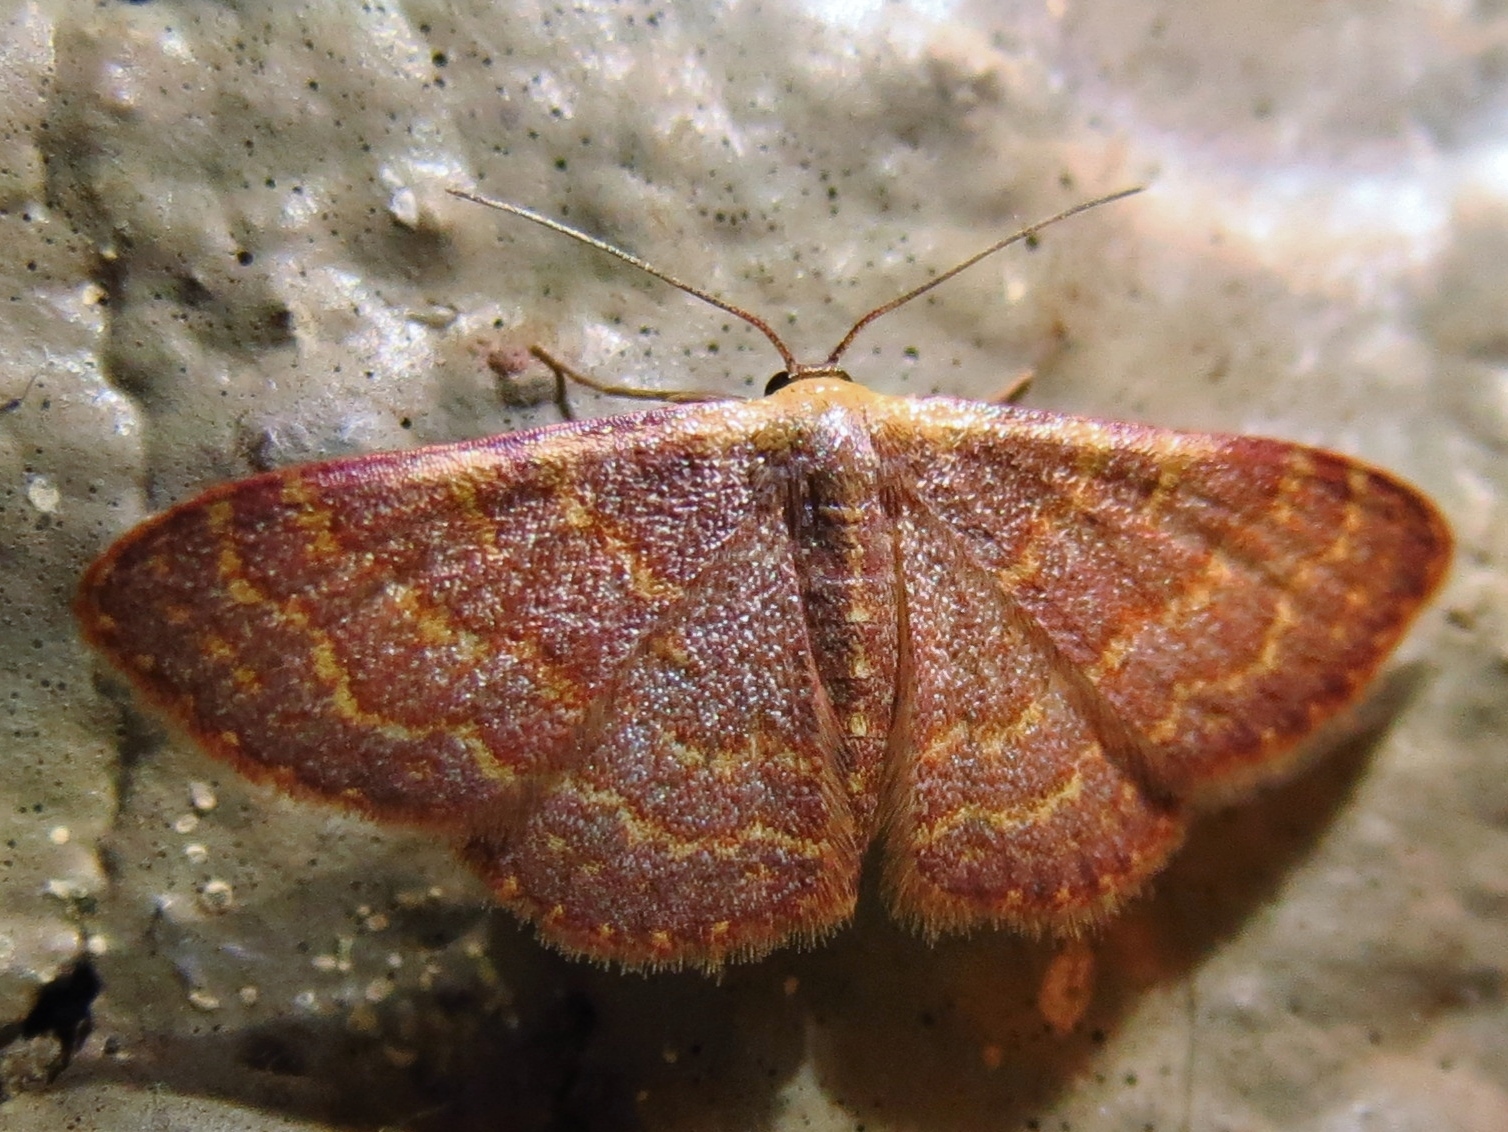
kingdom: Animalia
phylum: Arthropoda
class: Insecta
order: Lepidoptera
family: Geometridae
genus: Leptostales
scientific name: Leptostales pannaria
